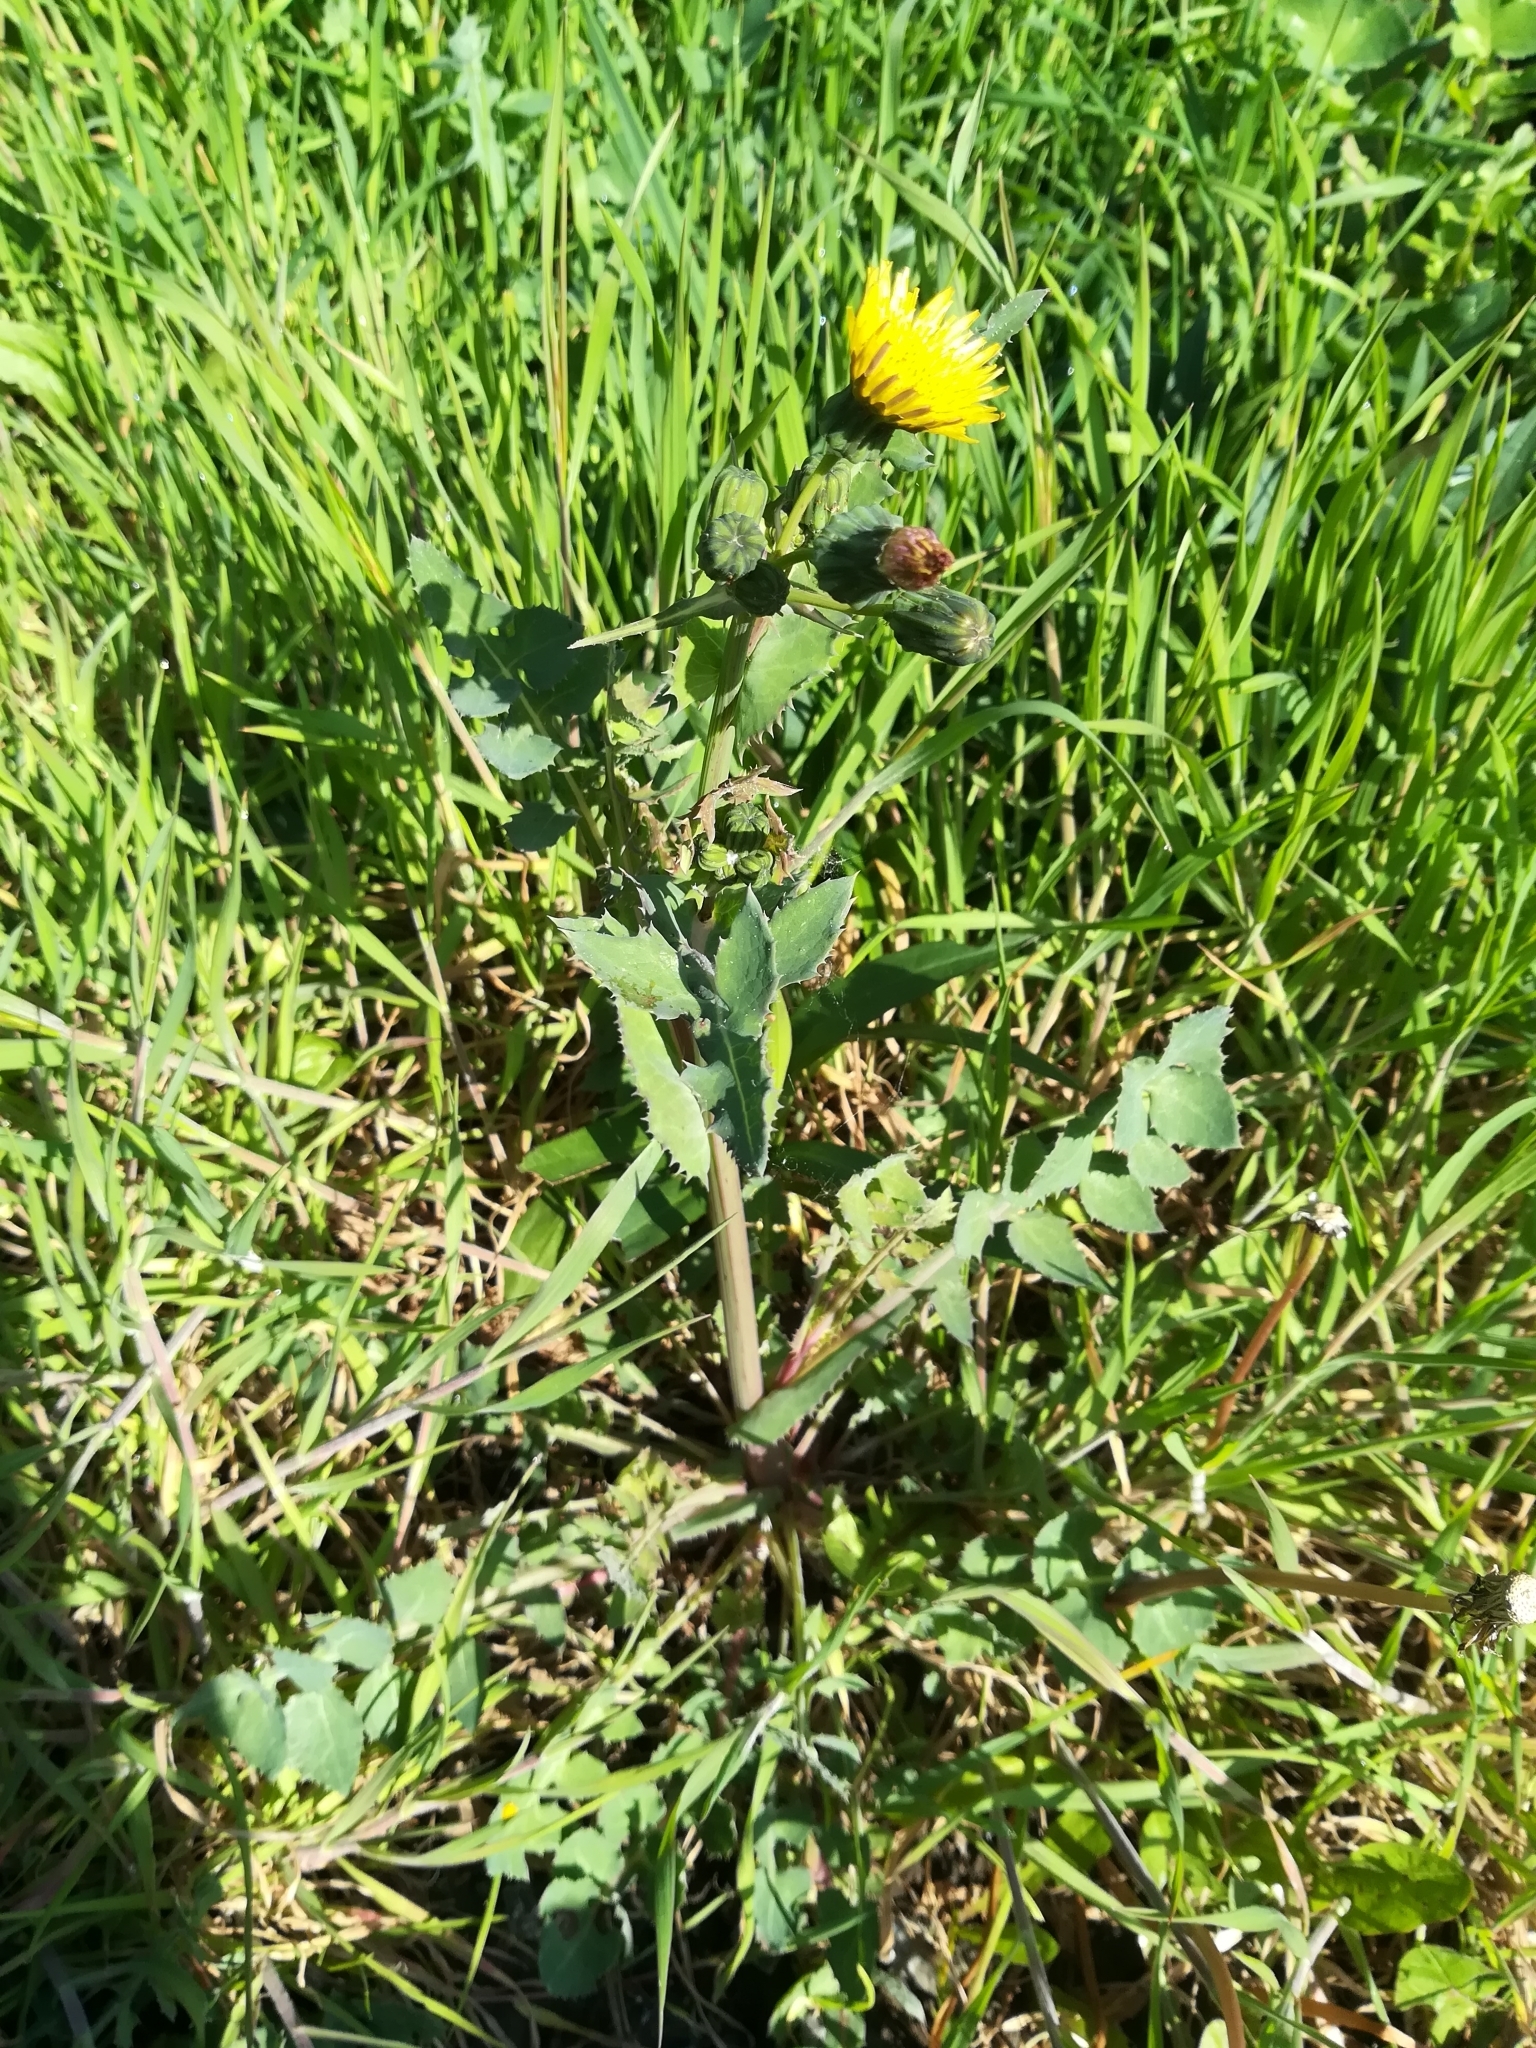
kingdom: Plantae
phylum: Tracheophyta
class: Magnoliopsida
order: Asterales
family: Asteraceae
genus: Sonchus
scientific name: Sonchus oleraceus
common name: Common sowthistle
